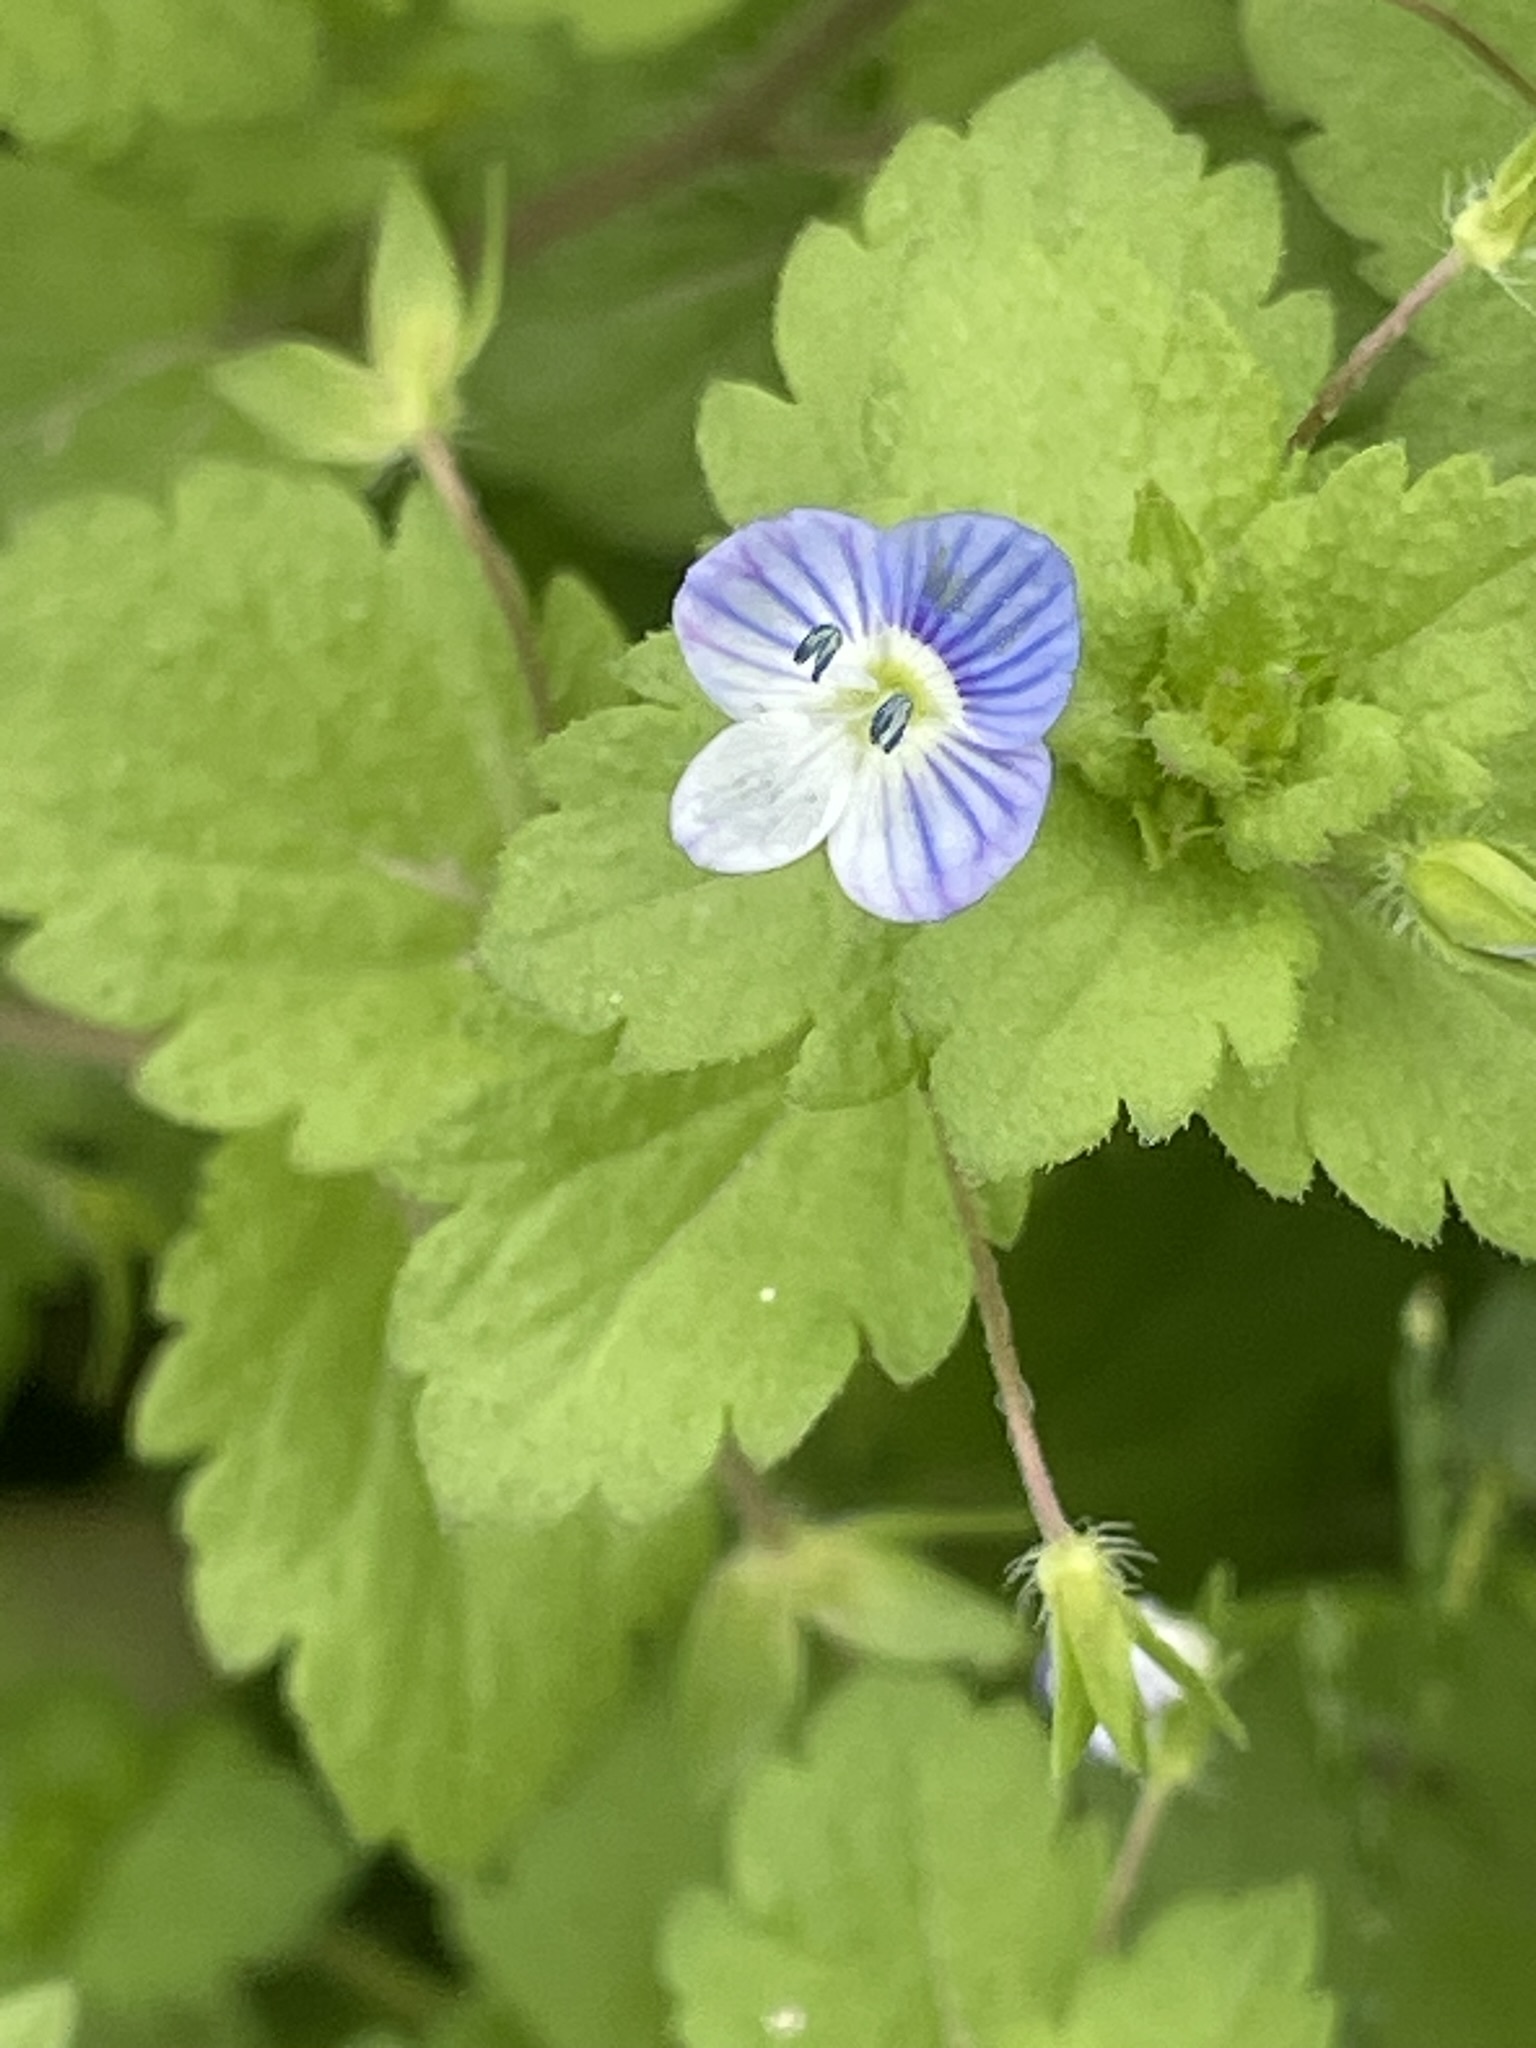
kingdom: Plantae
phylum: Tracheophyta
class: Magnoliopsida
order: Lamiales
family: Plantaginaceae
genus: Veronica
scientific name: Veronica persica
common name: Common field-speedwell
